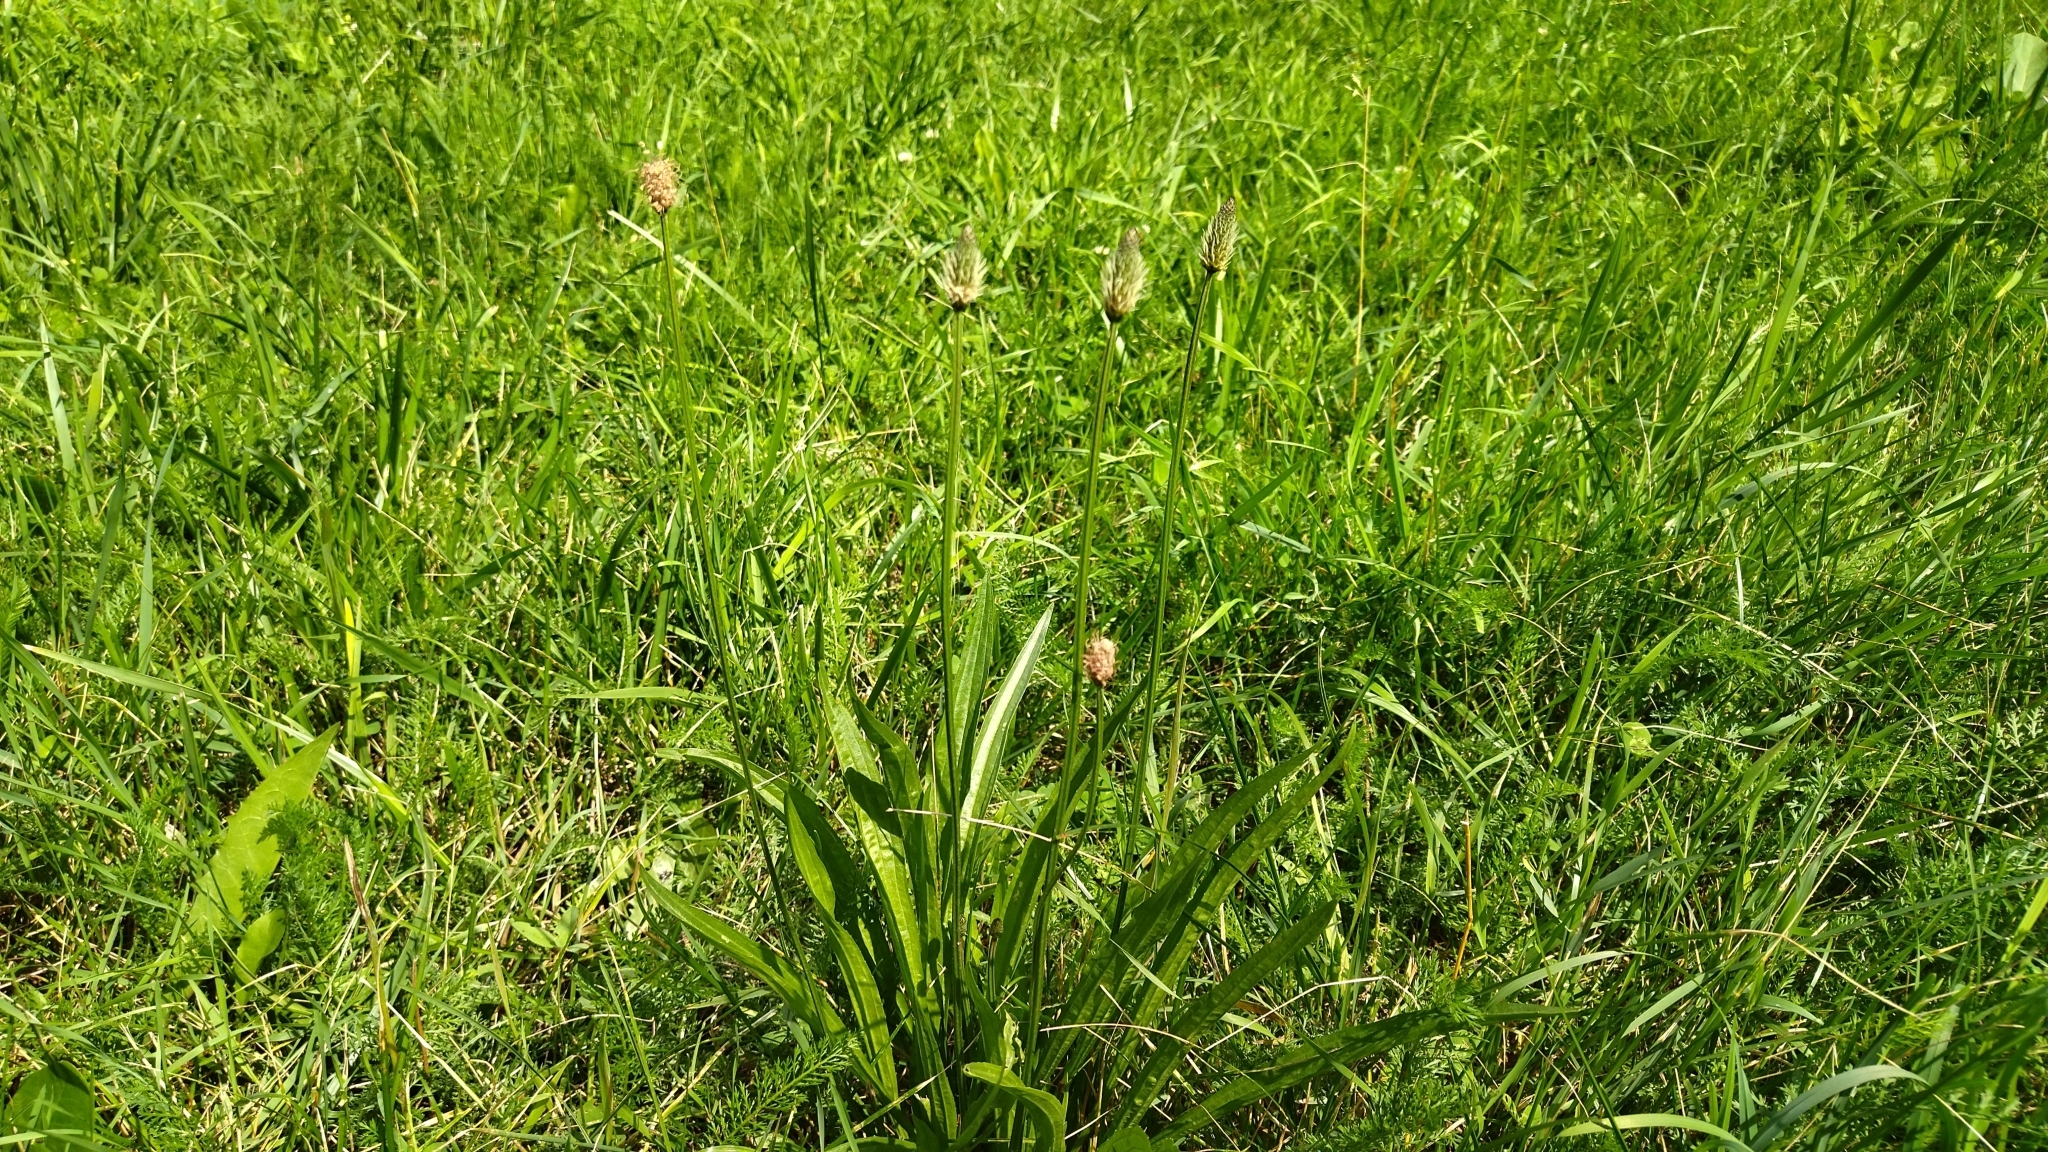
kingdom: Plantae
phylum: Tracheophyta
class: Magnoliopsida
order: Lamiales
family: Plantaginaceae
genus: Plantago
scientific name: Plantago lanceolata
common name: Ribwort plantain
